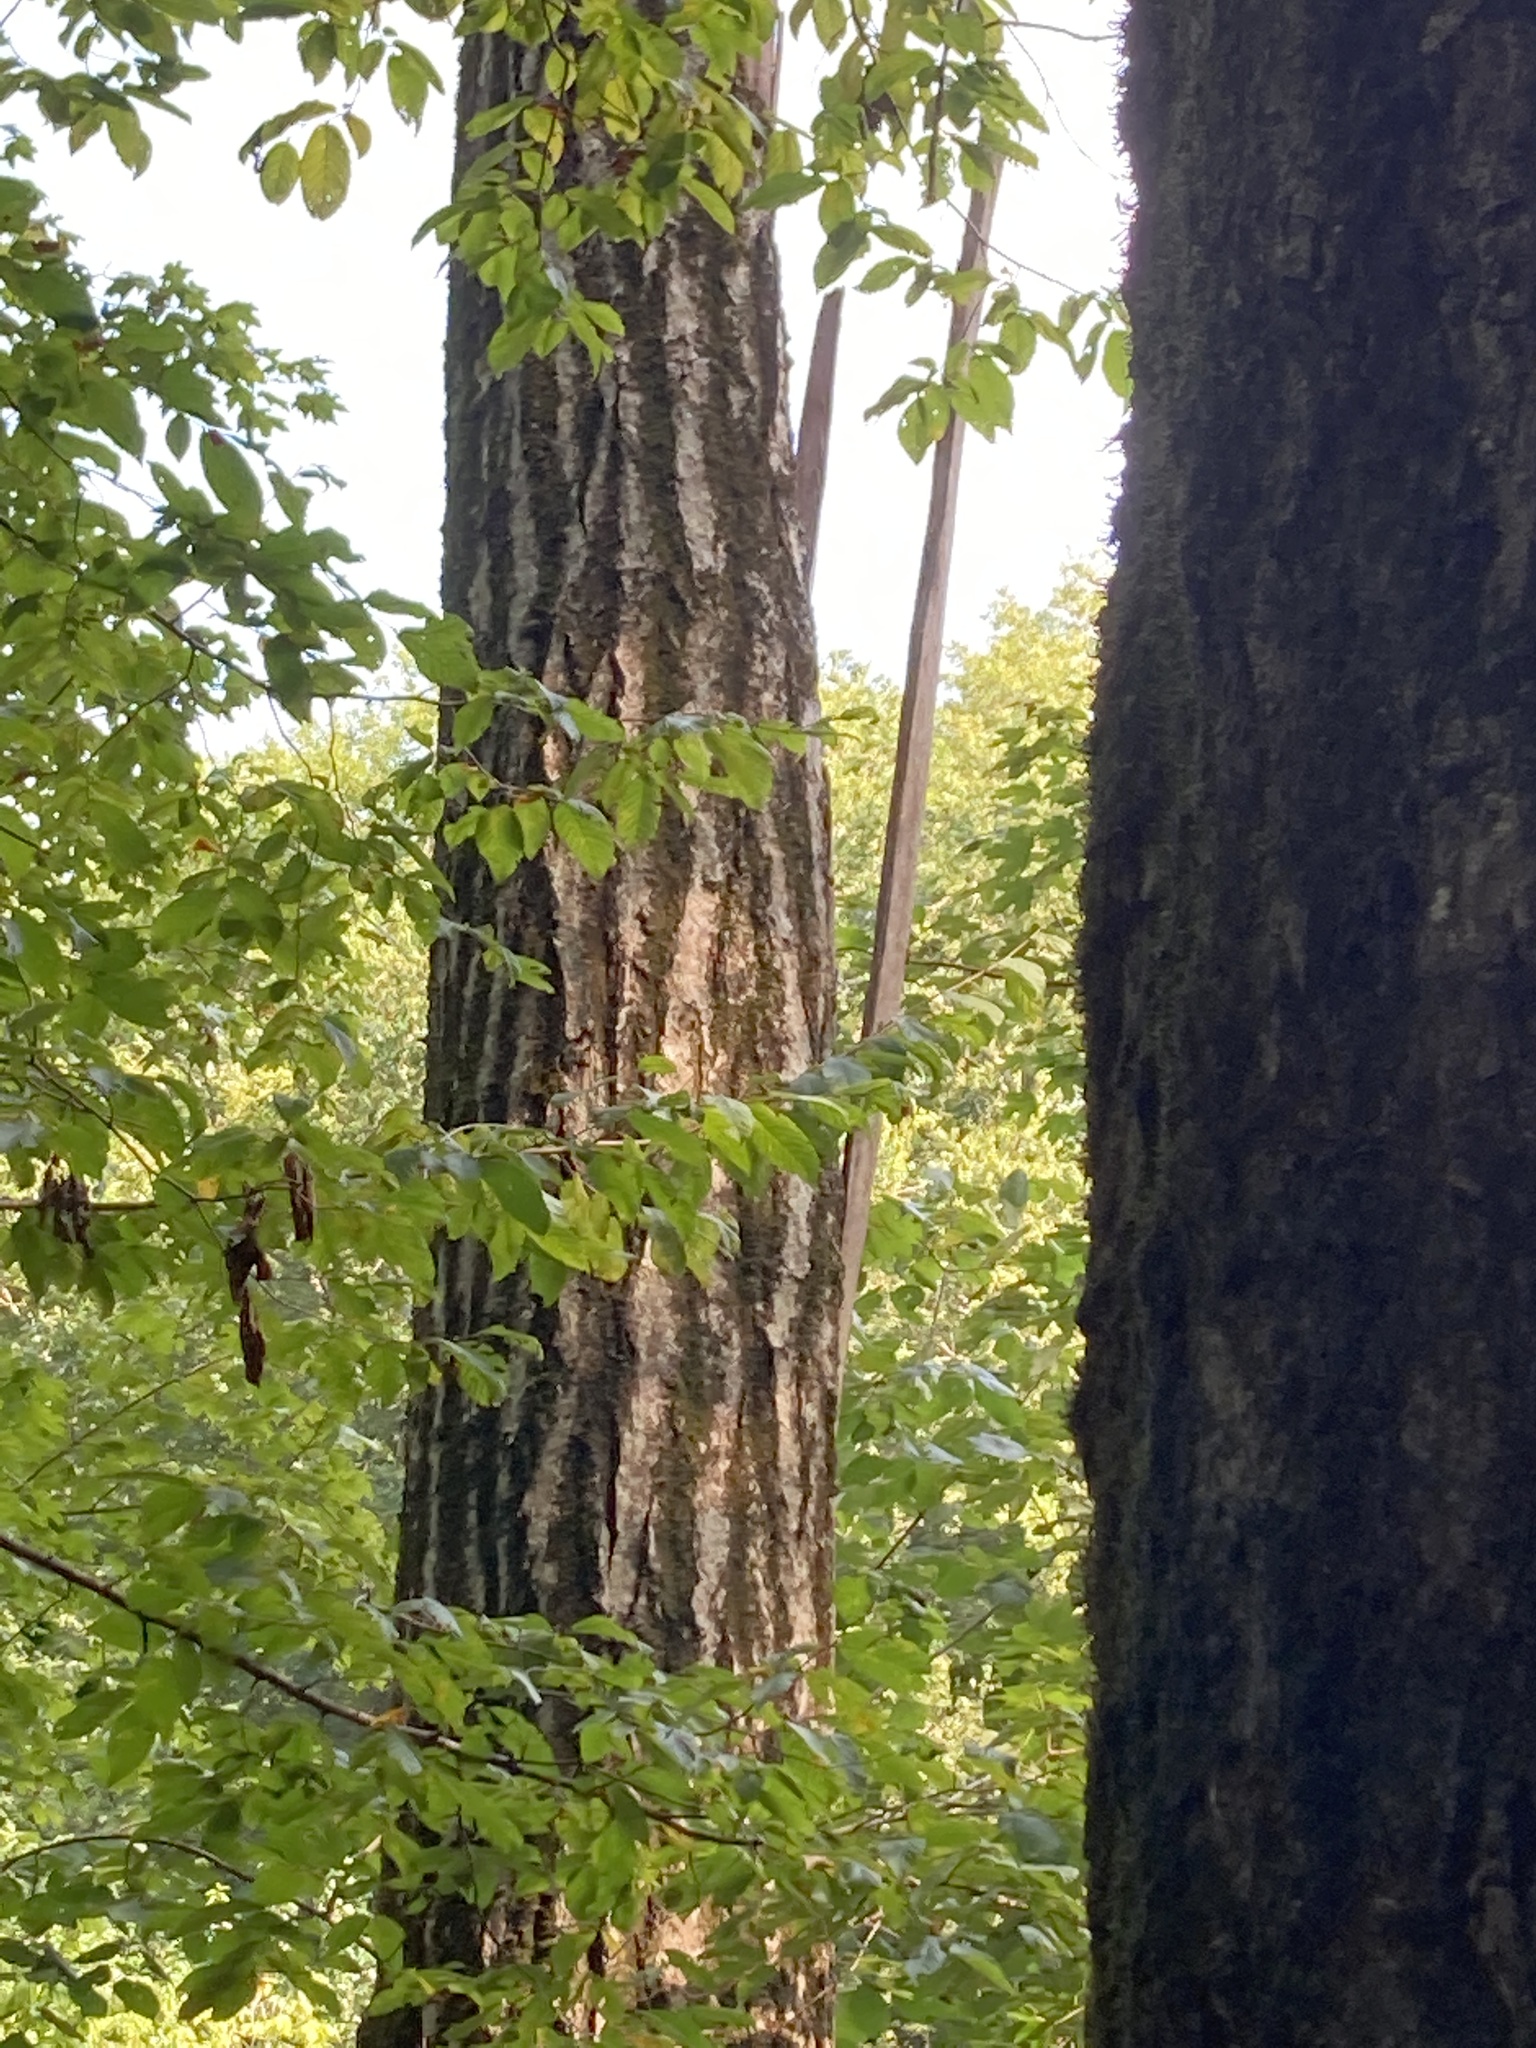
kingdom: Plantae
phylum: Tracheophyta
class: Magnoliopsida
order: Fagales
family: Fagaceae
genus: Quercus
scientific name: Quercus shumardii
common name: Shumard oak
